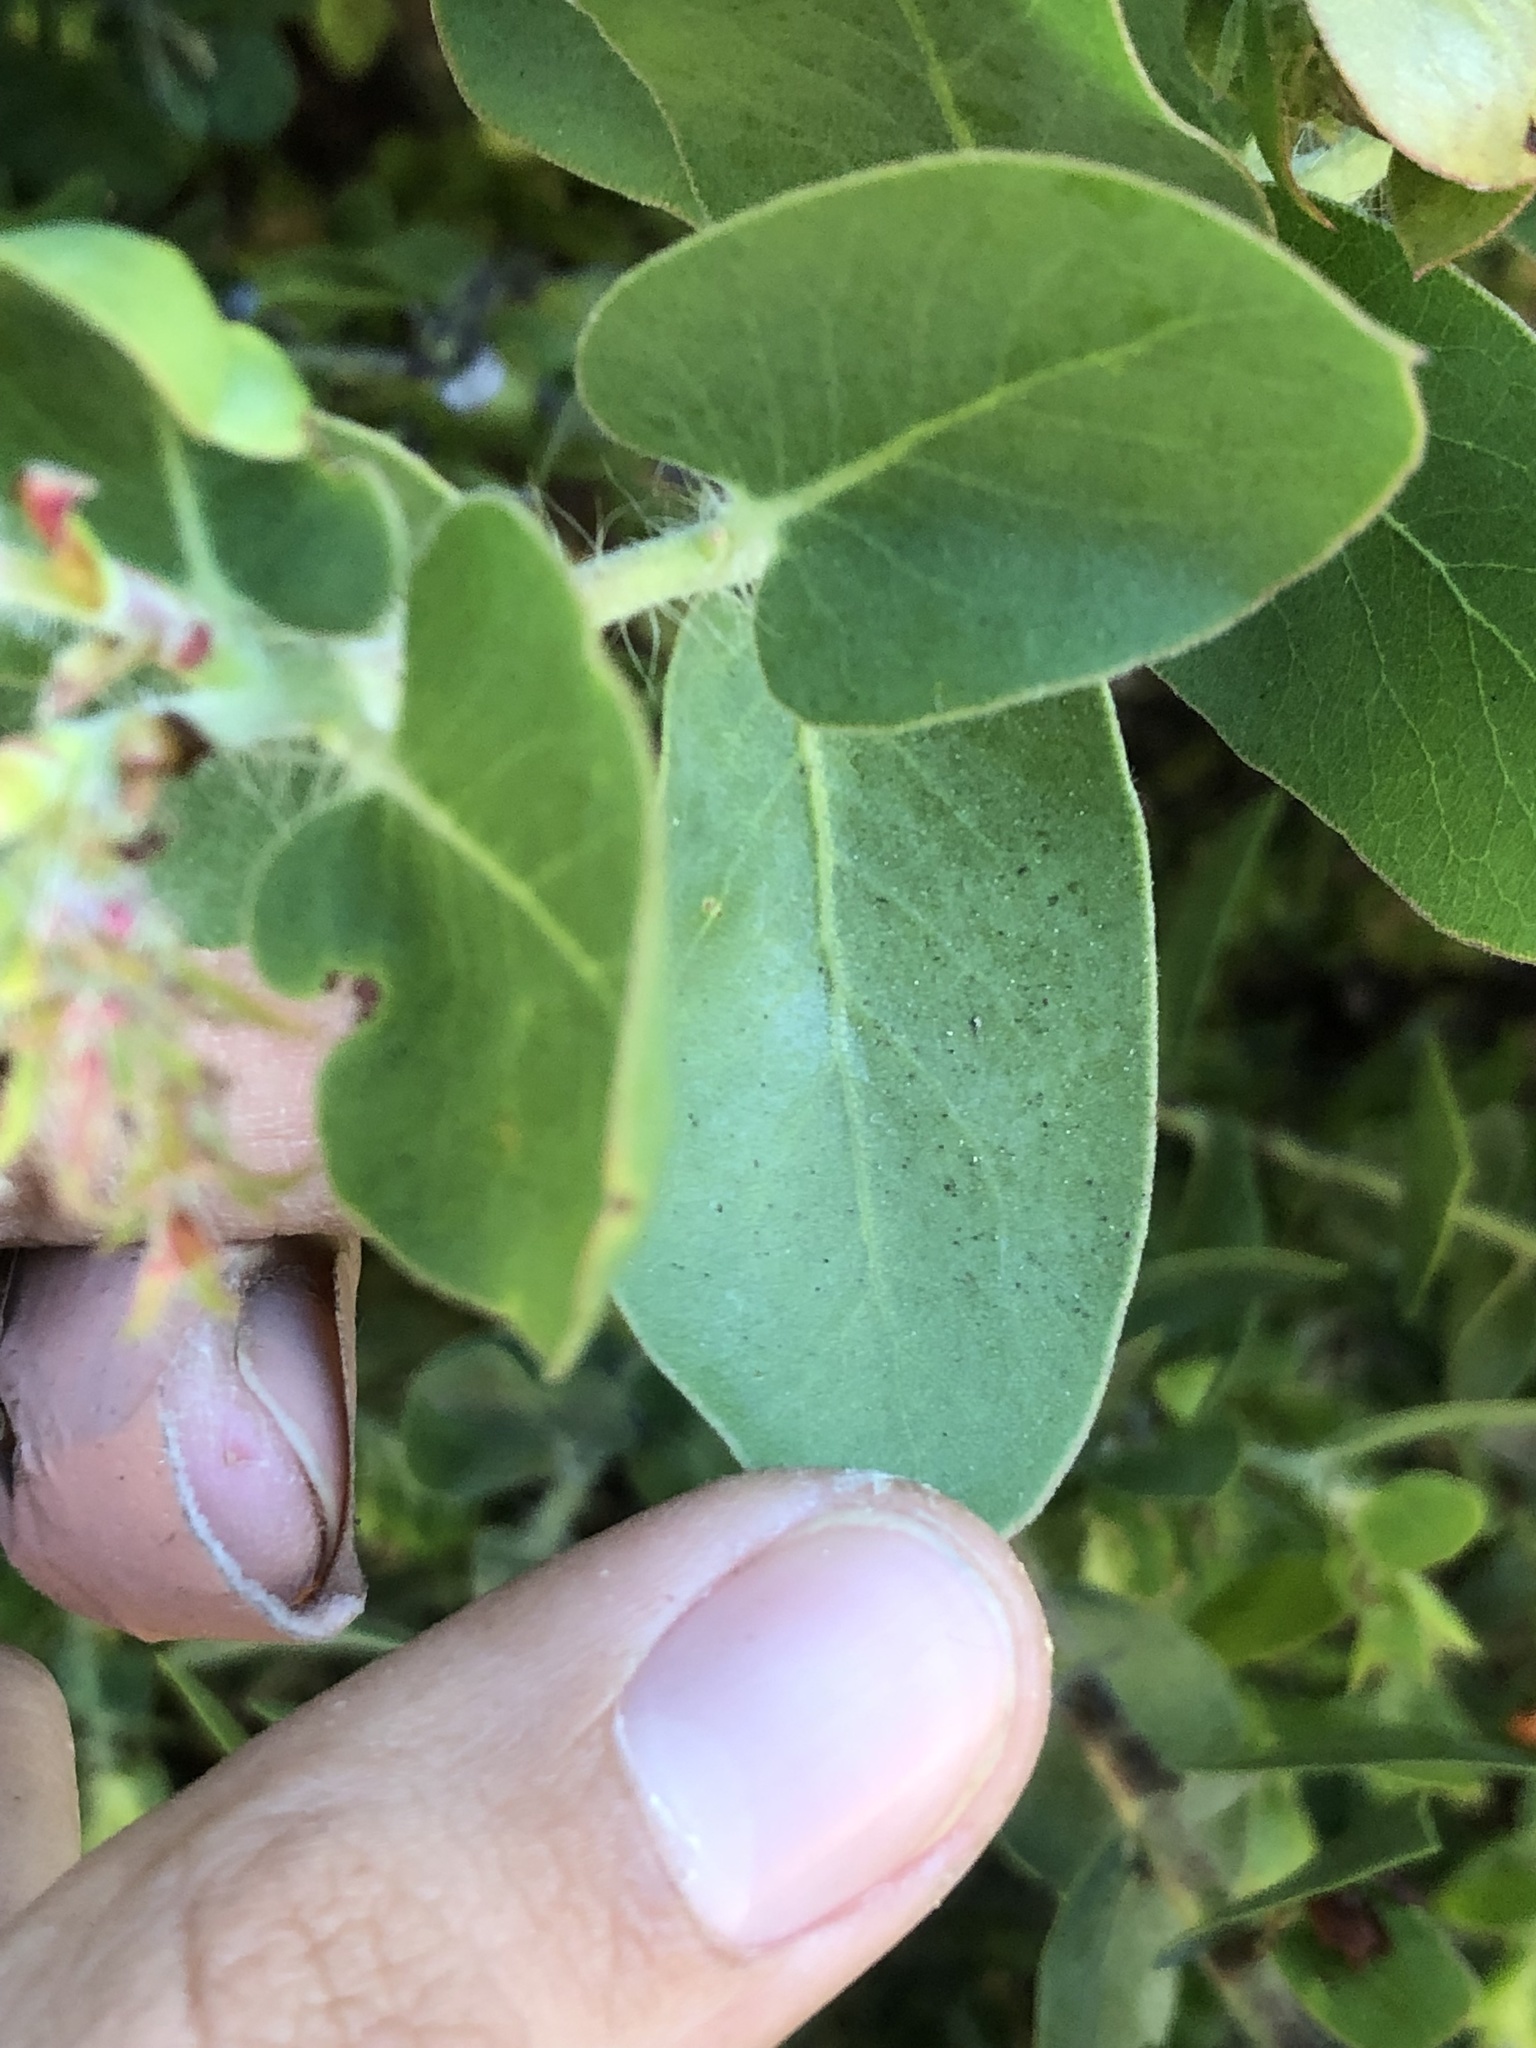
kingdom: Plantae
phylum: Tracheophyta
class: Magnoliopsida
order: Ericales
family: Ericaceae
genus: Arctostaphylos
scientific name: Arctostaphylos pechoensis
